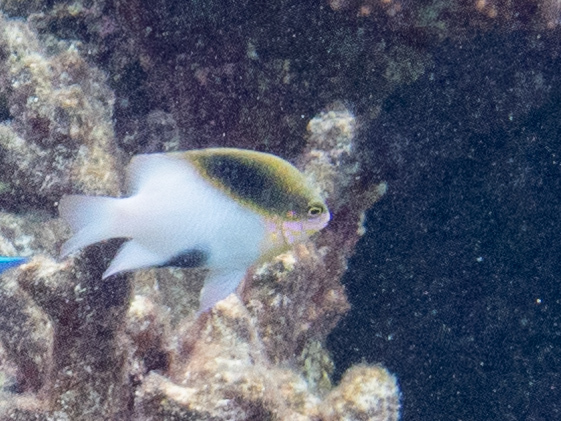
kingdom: Animalia
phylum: Chordata
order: Perciformes
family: Pomacentridae
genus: Dischistodus
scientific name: Dischistodus melanotus
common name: Black-vent damsel
